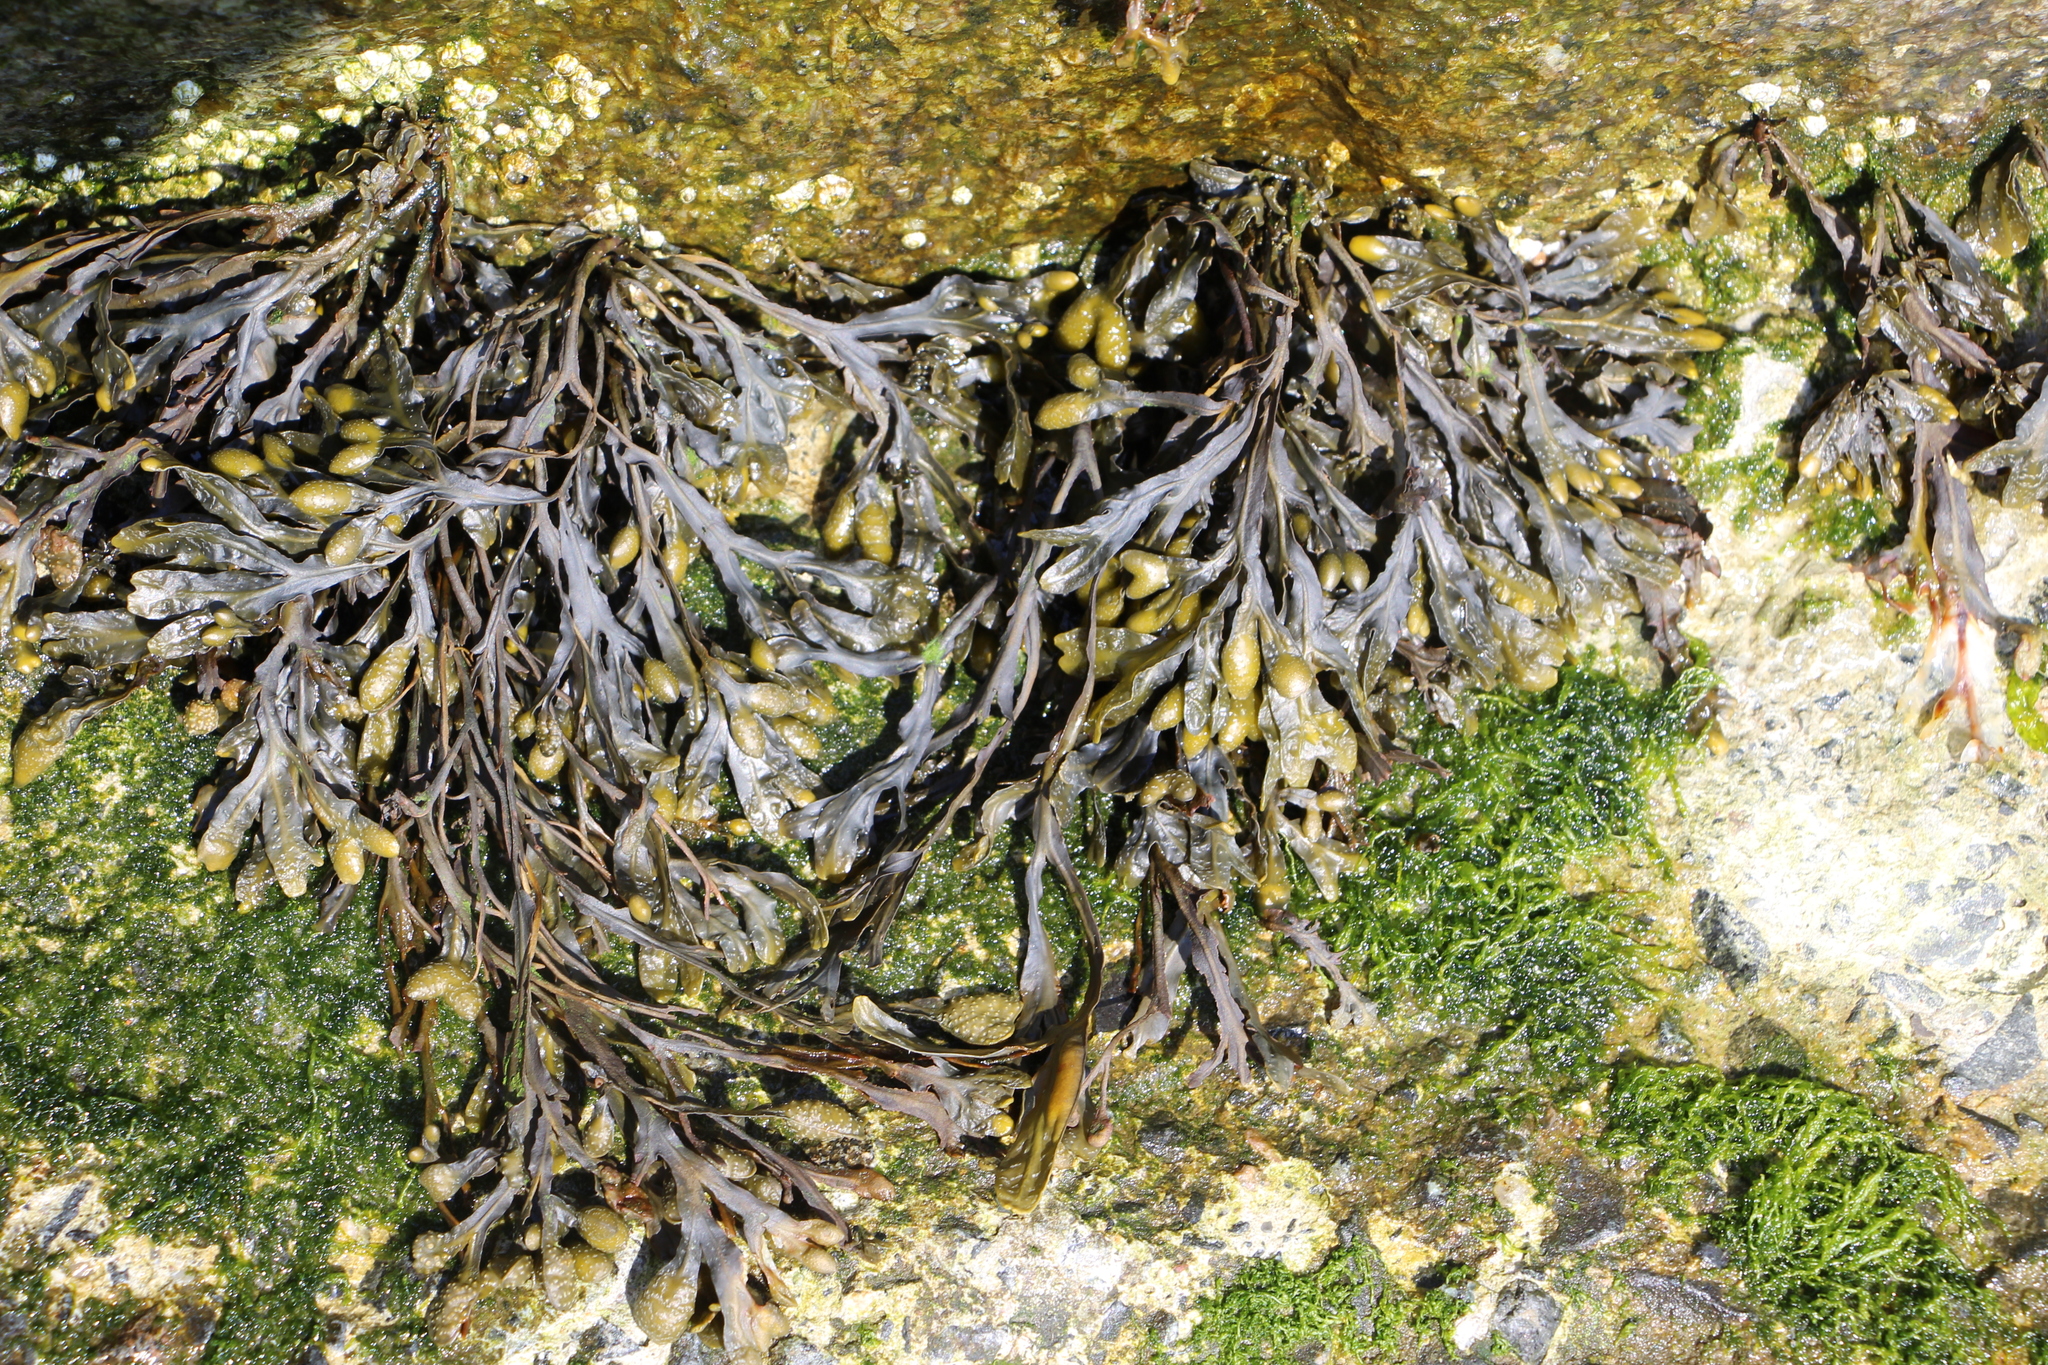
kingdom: Chromista
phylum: Ochrophyta
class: Phaeophyceae
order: Fucales
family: Fucaceae
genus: Fucus
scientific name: Fucus vesiculosus
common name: Bladder wrack
